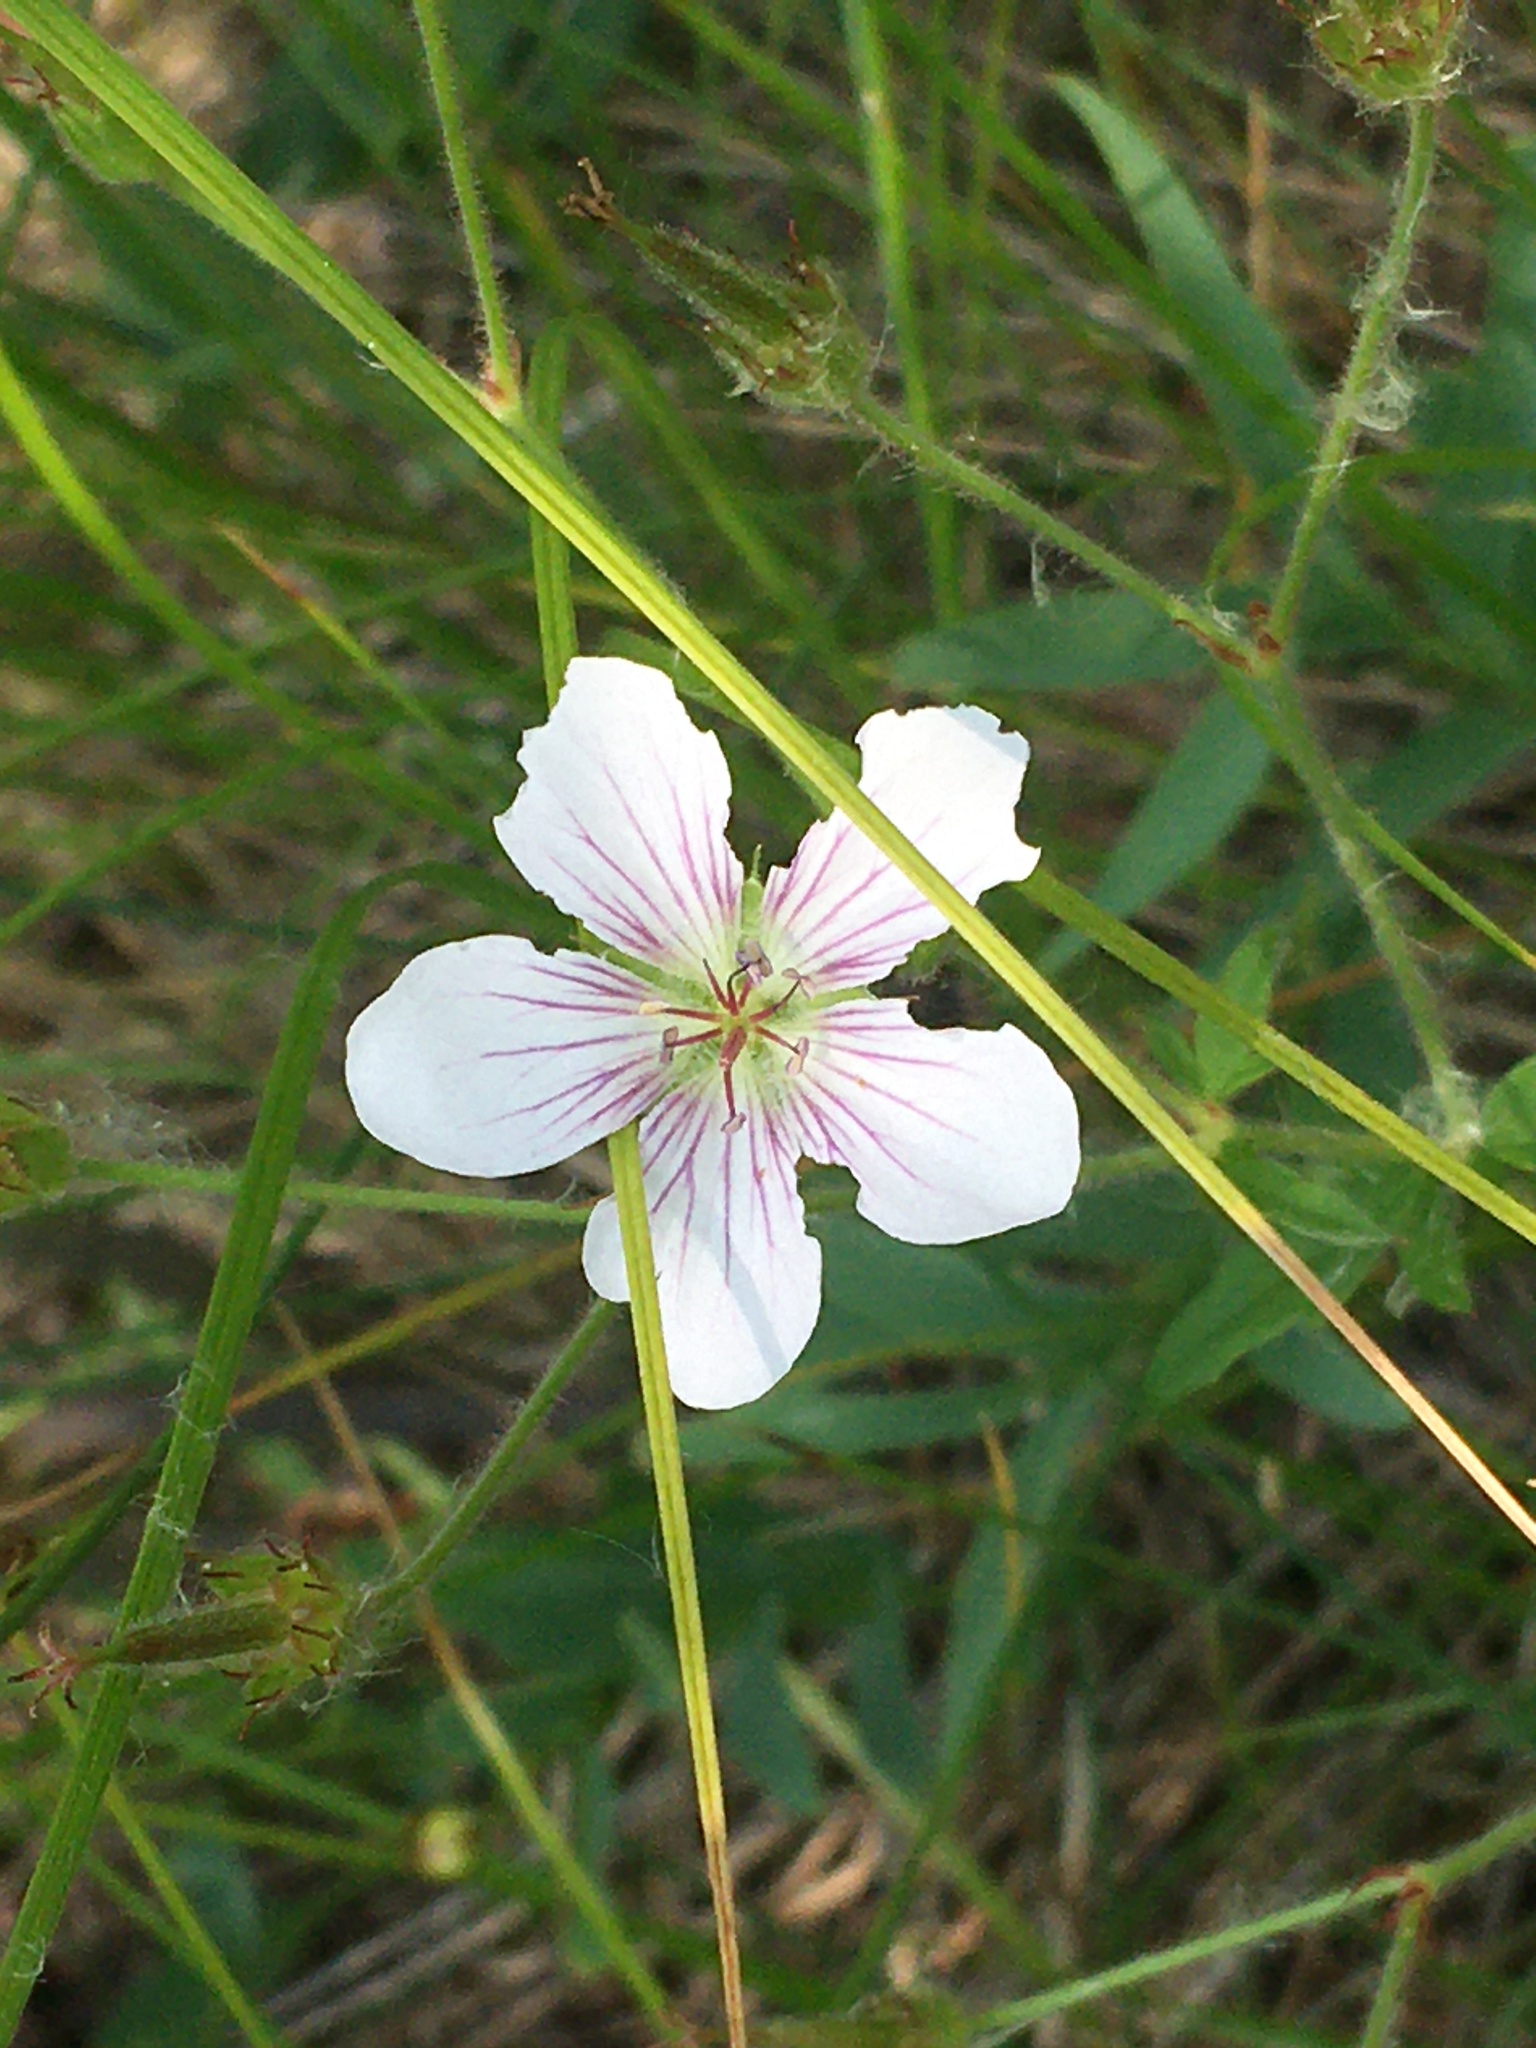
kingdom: Plantae
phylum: Tracheophyta
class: Magnoliopsida
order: Geraniales
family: Geraniaceae
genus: Geranium
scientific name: Geranium richardsonii
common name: Richardson's crane's-bill
